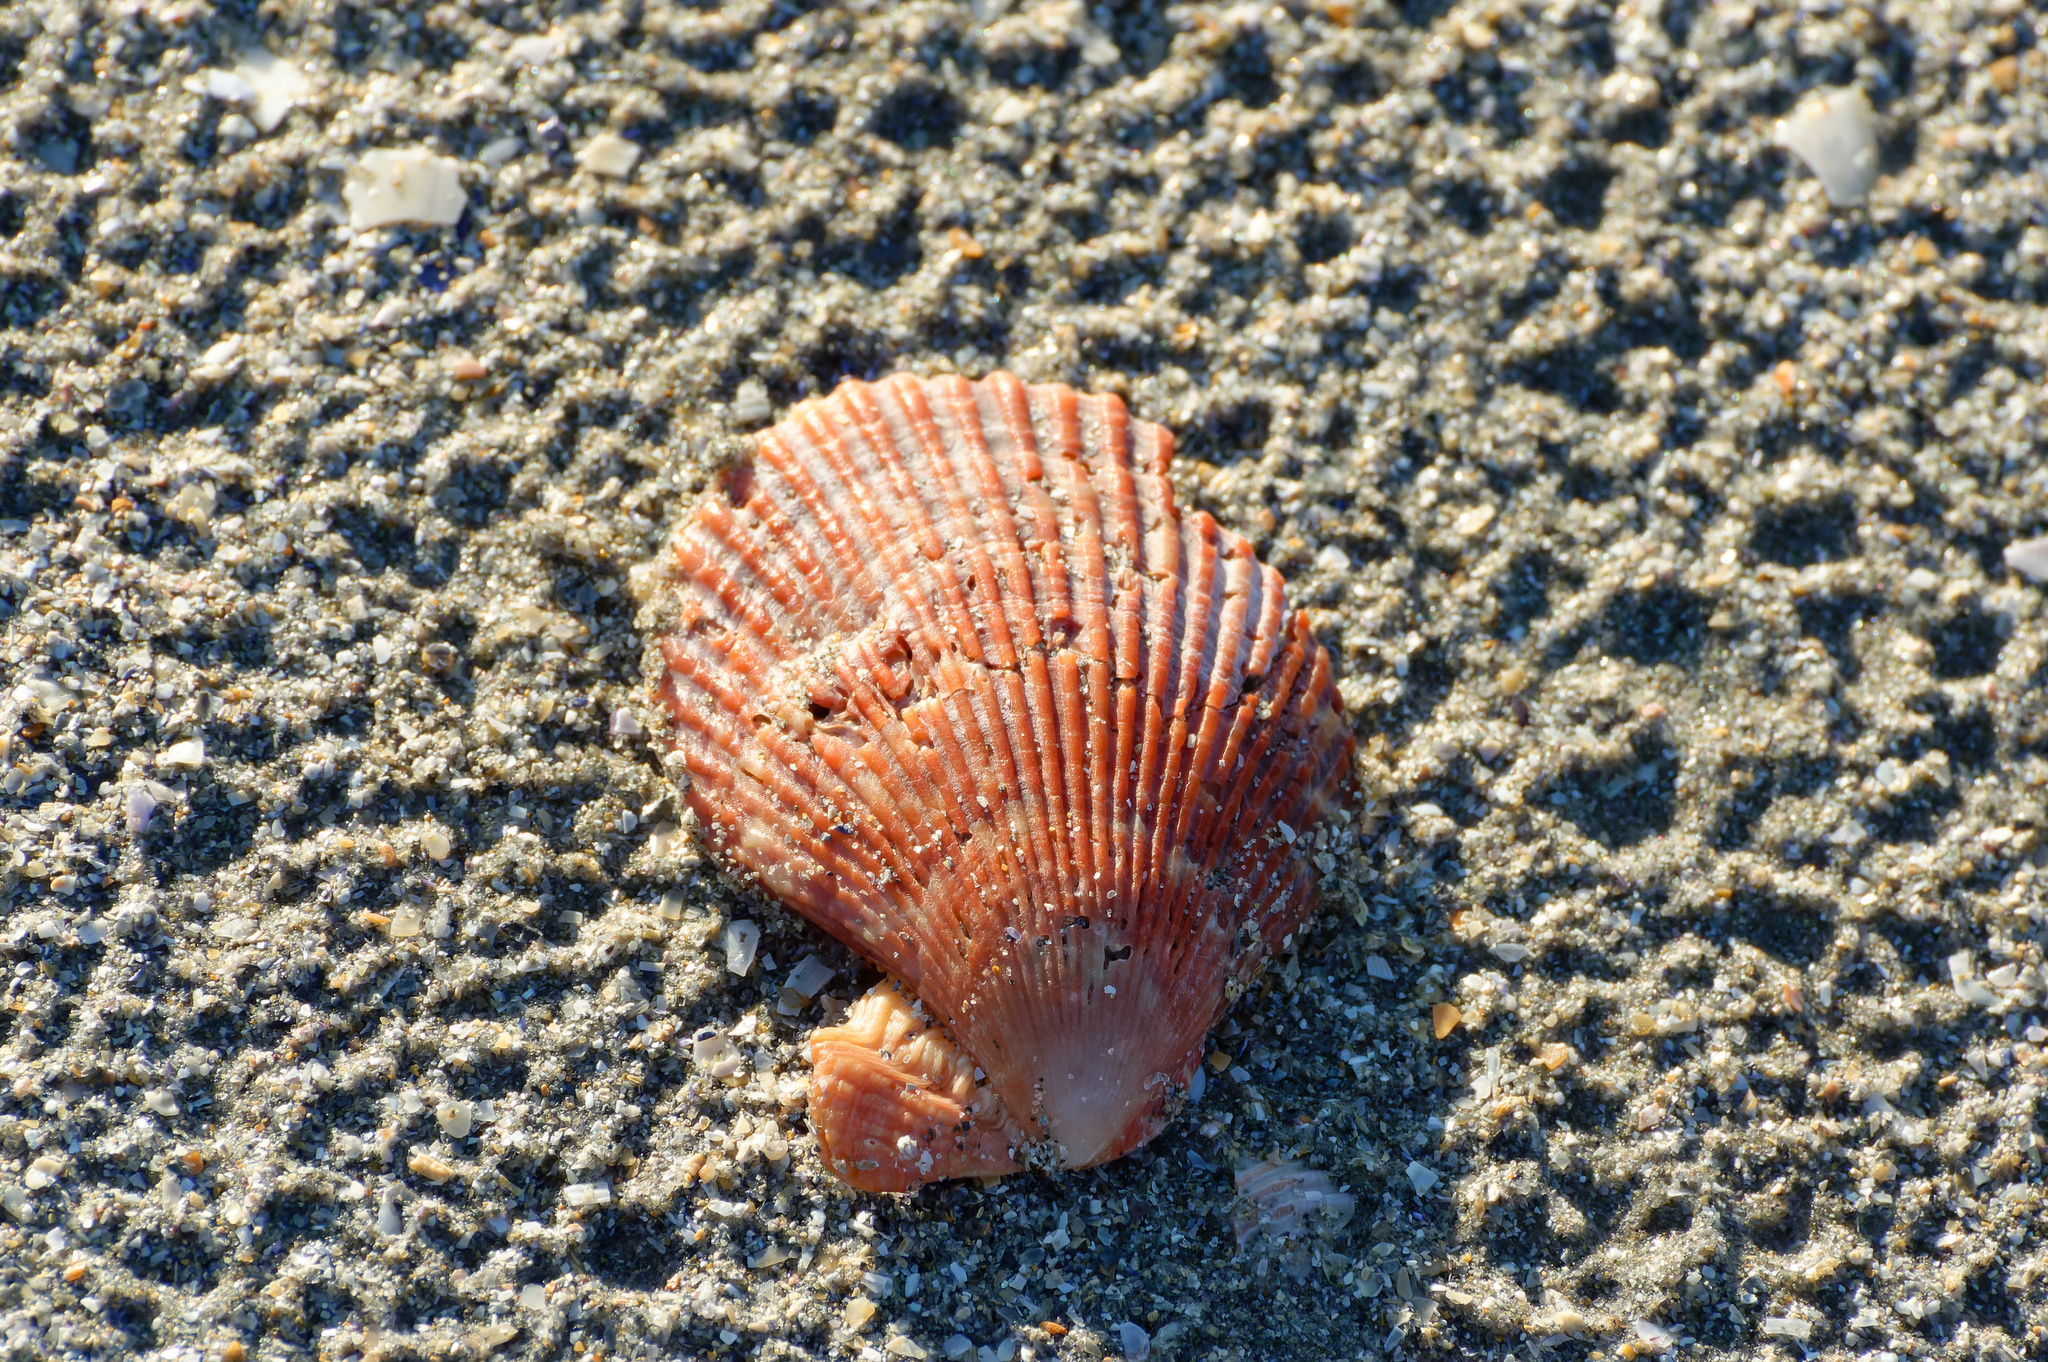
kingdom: Animalia
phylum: Mollusca
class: Bivalvia
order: Pectinida
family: Pectinidae
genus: Mimachlamys
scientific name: Mimachlamys varia
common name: Variegated scallop
